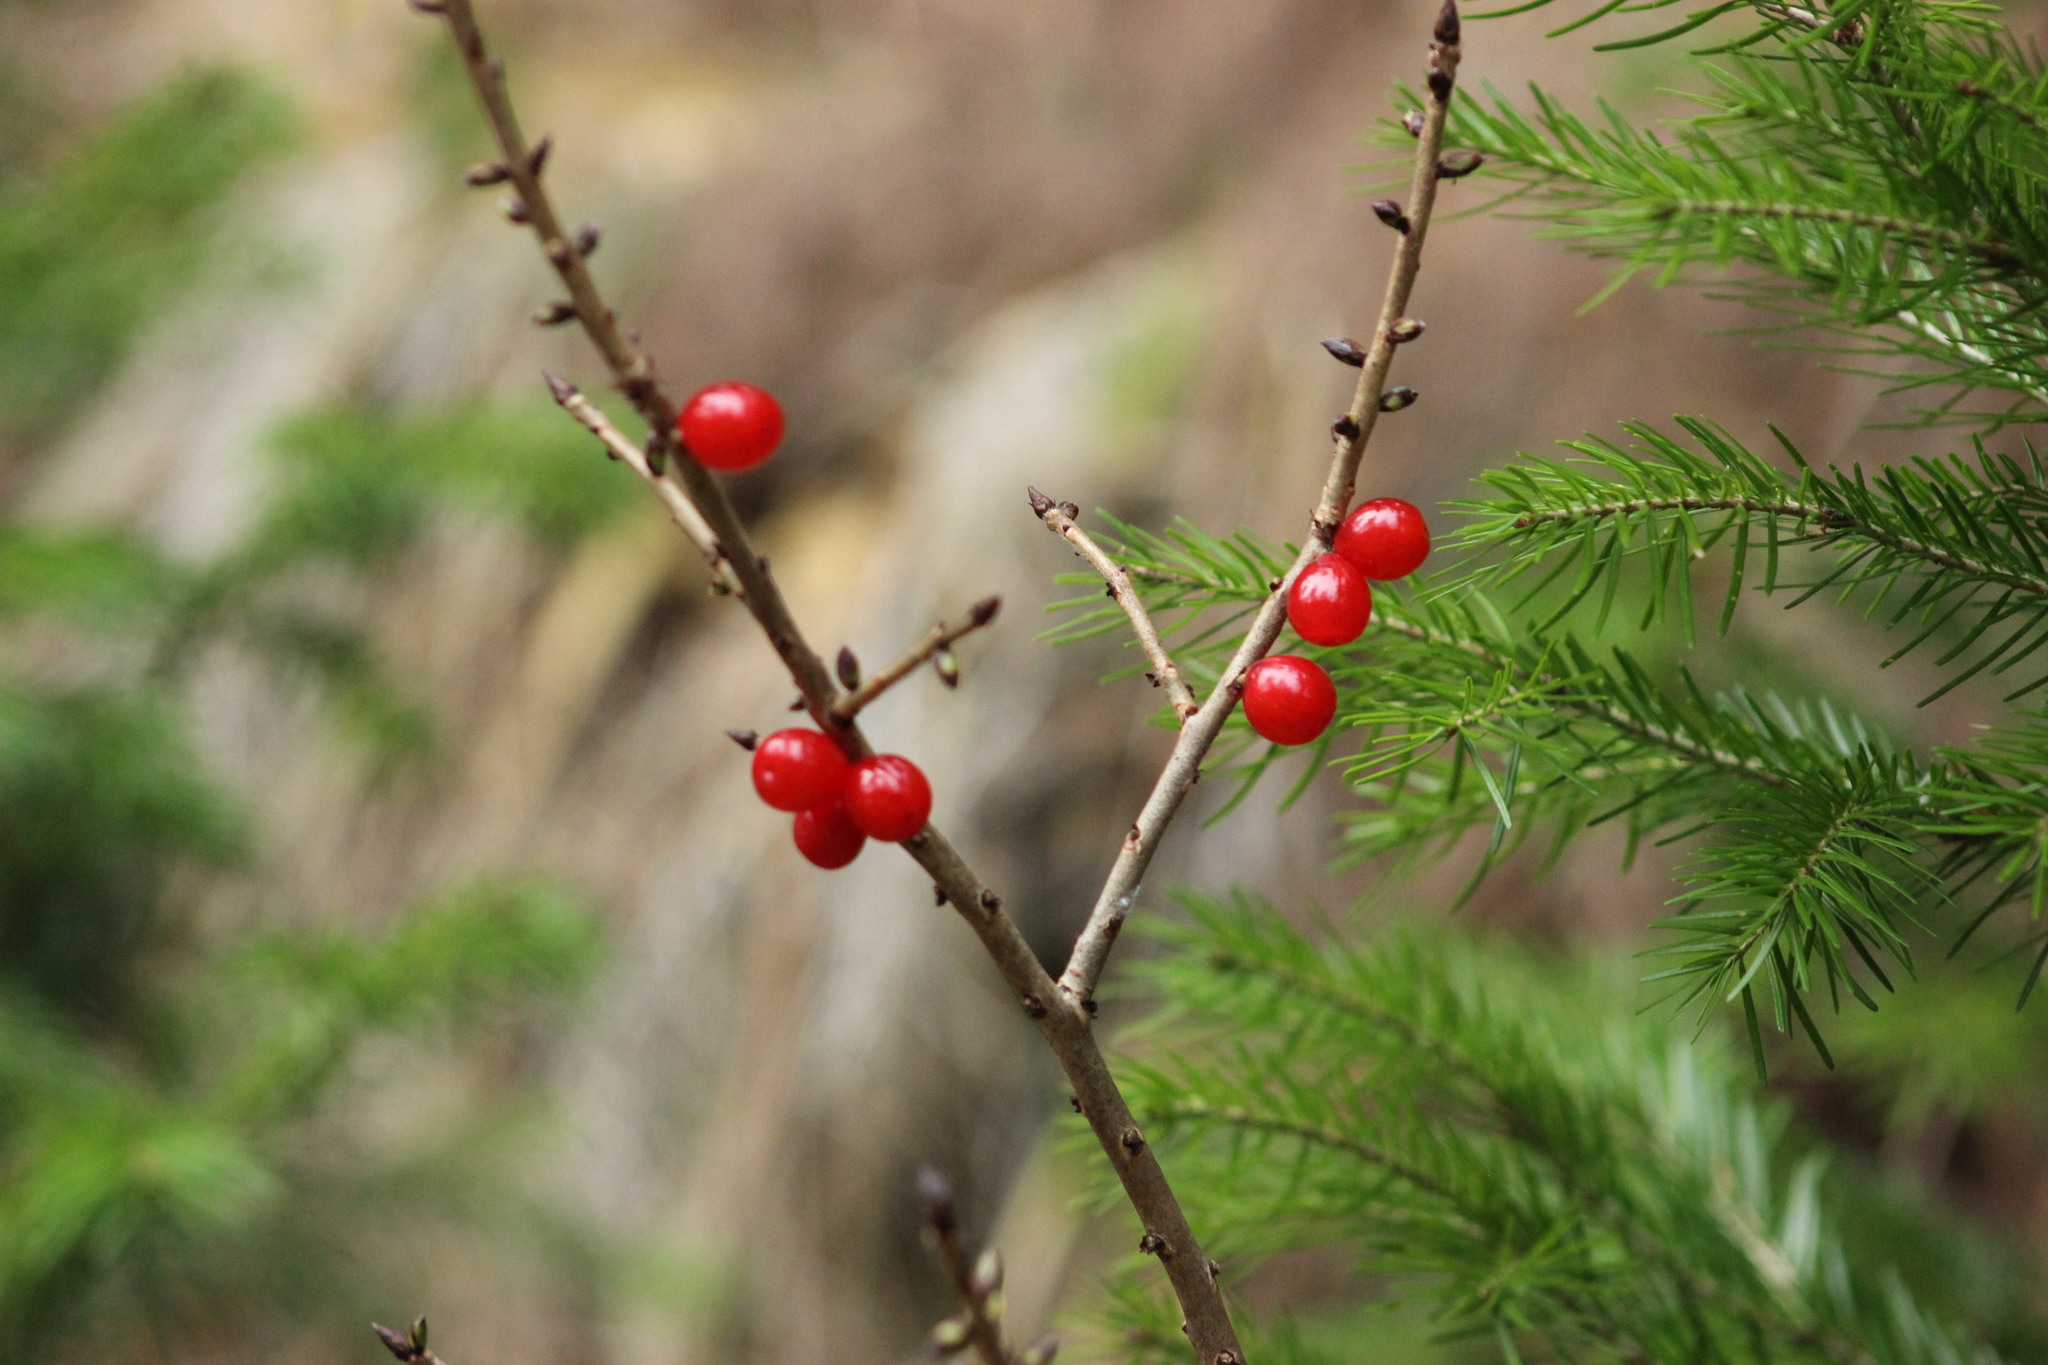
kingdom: Plantae
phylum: Tracheophyta
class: Magnoliopsida
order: Malvales
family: Thymelaeaceae
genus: Daphne
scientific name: Daphne mezereum
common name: Mezereon
